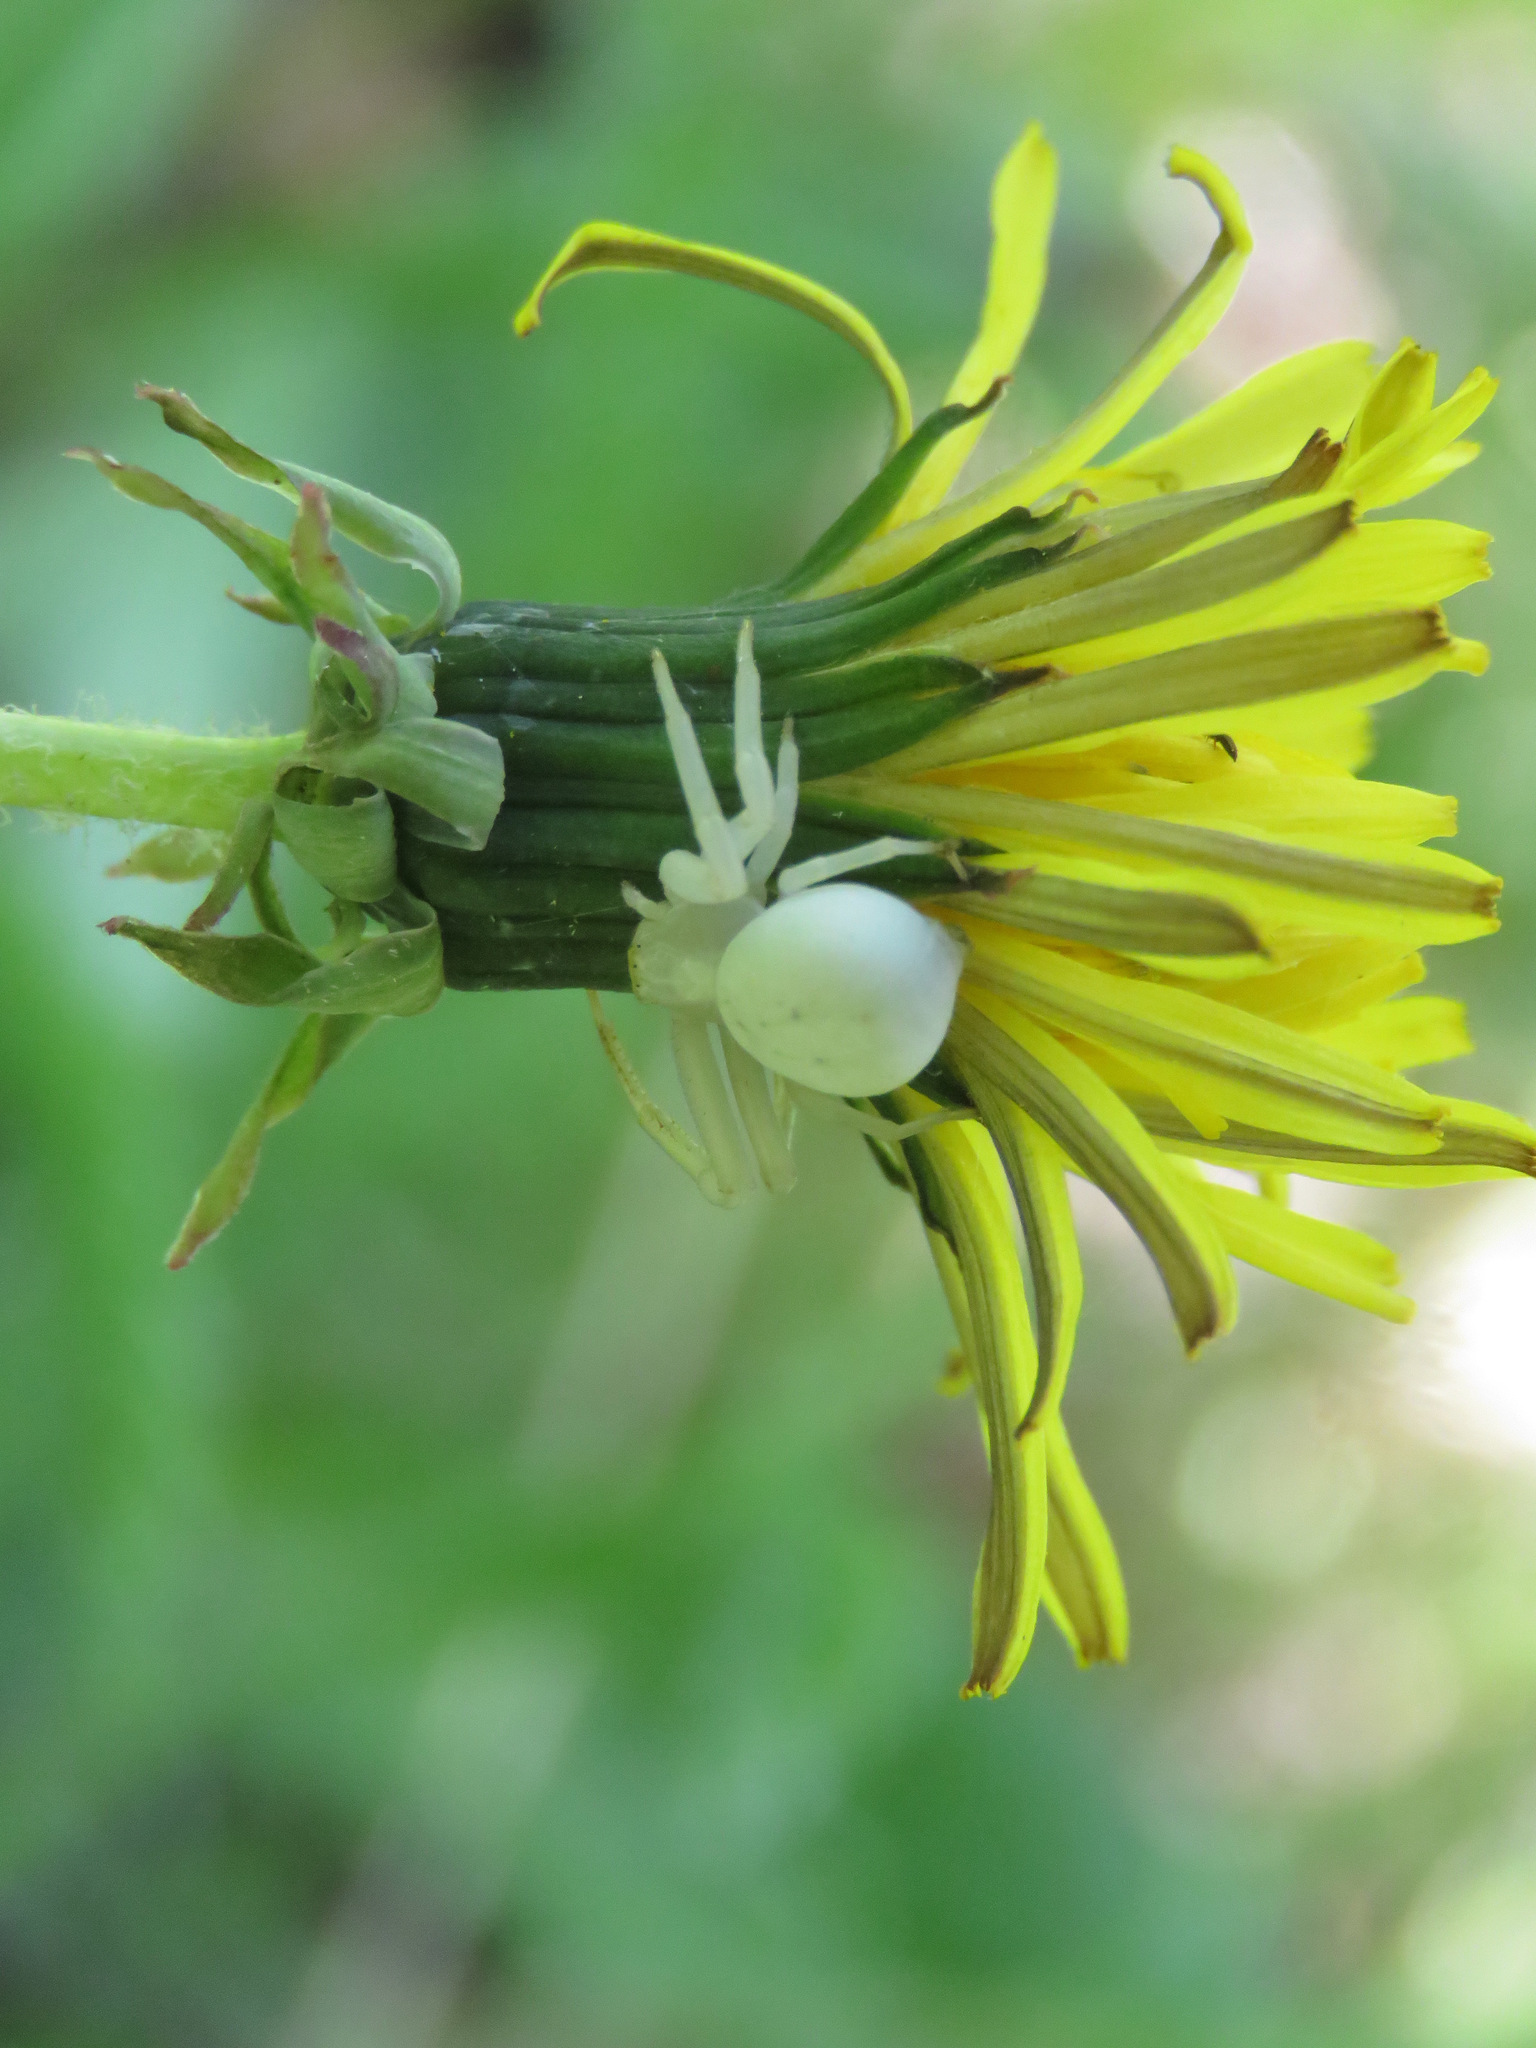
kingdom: Animalia
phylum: Arthropoda
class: Arachnida
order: Araneae
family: Thomisidae
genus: Misumena
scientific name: Misumena vatia
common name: Goldenrod crab spider
